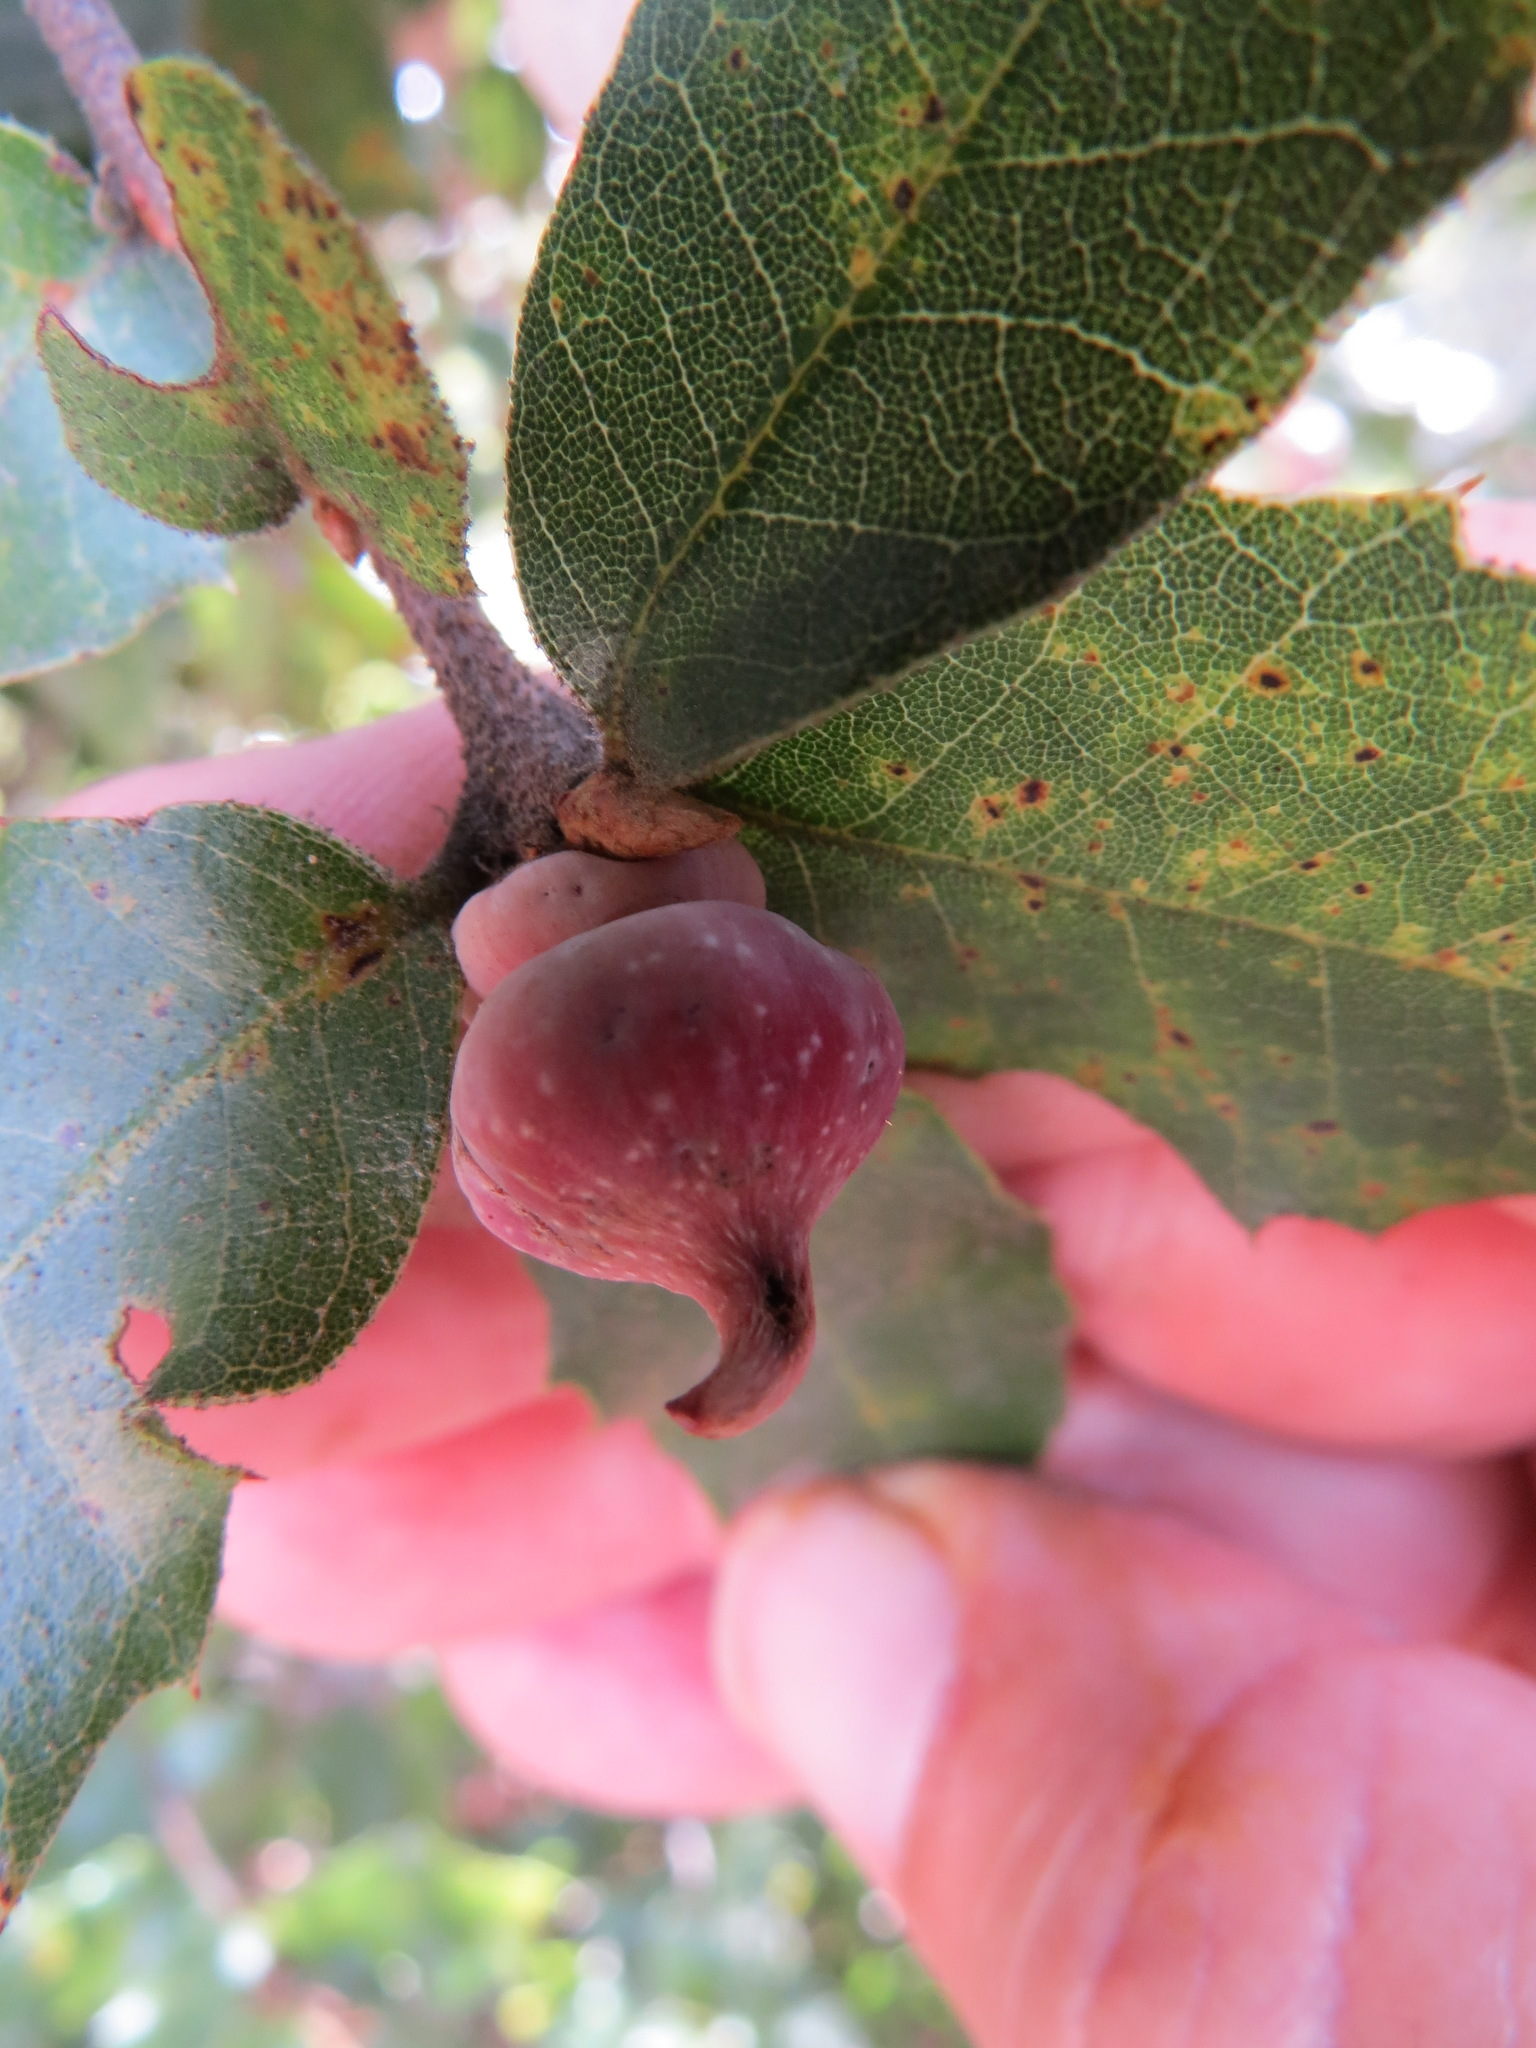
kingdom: Animalia
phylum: Arthropoda
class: Insecta
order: Hymenoptera
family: Cynipidae
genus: Heteroecus
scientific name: Heteroecus
